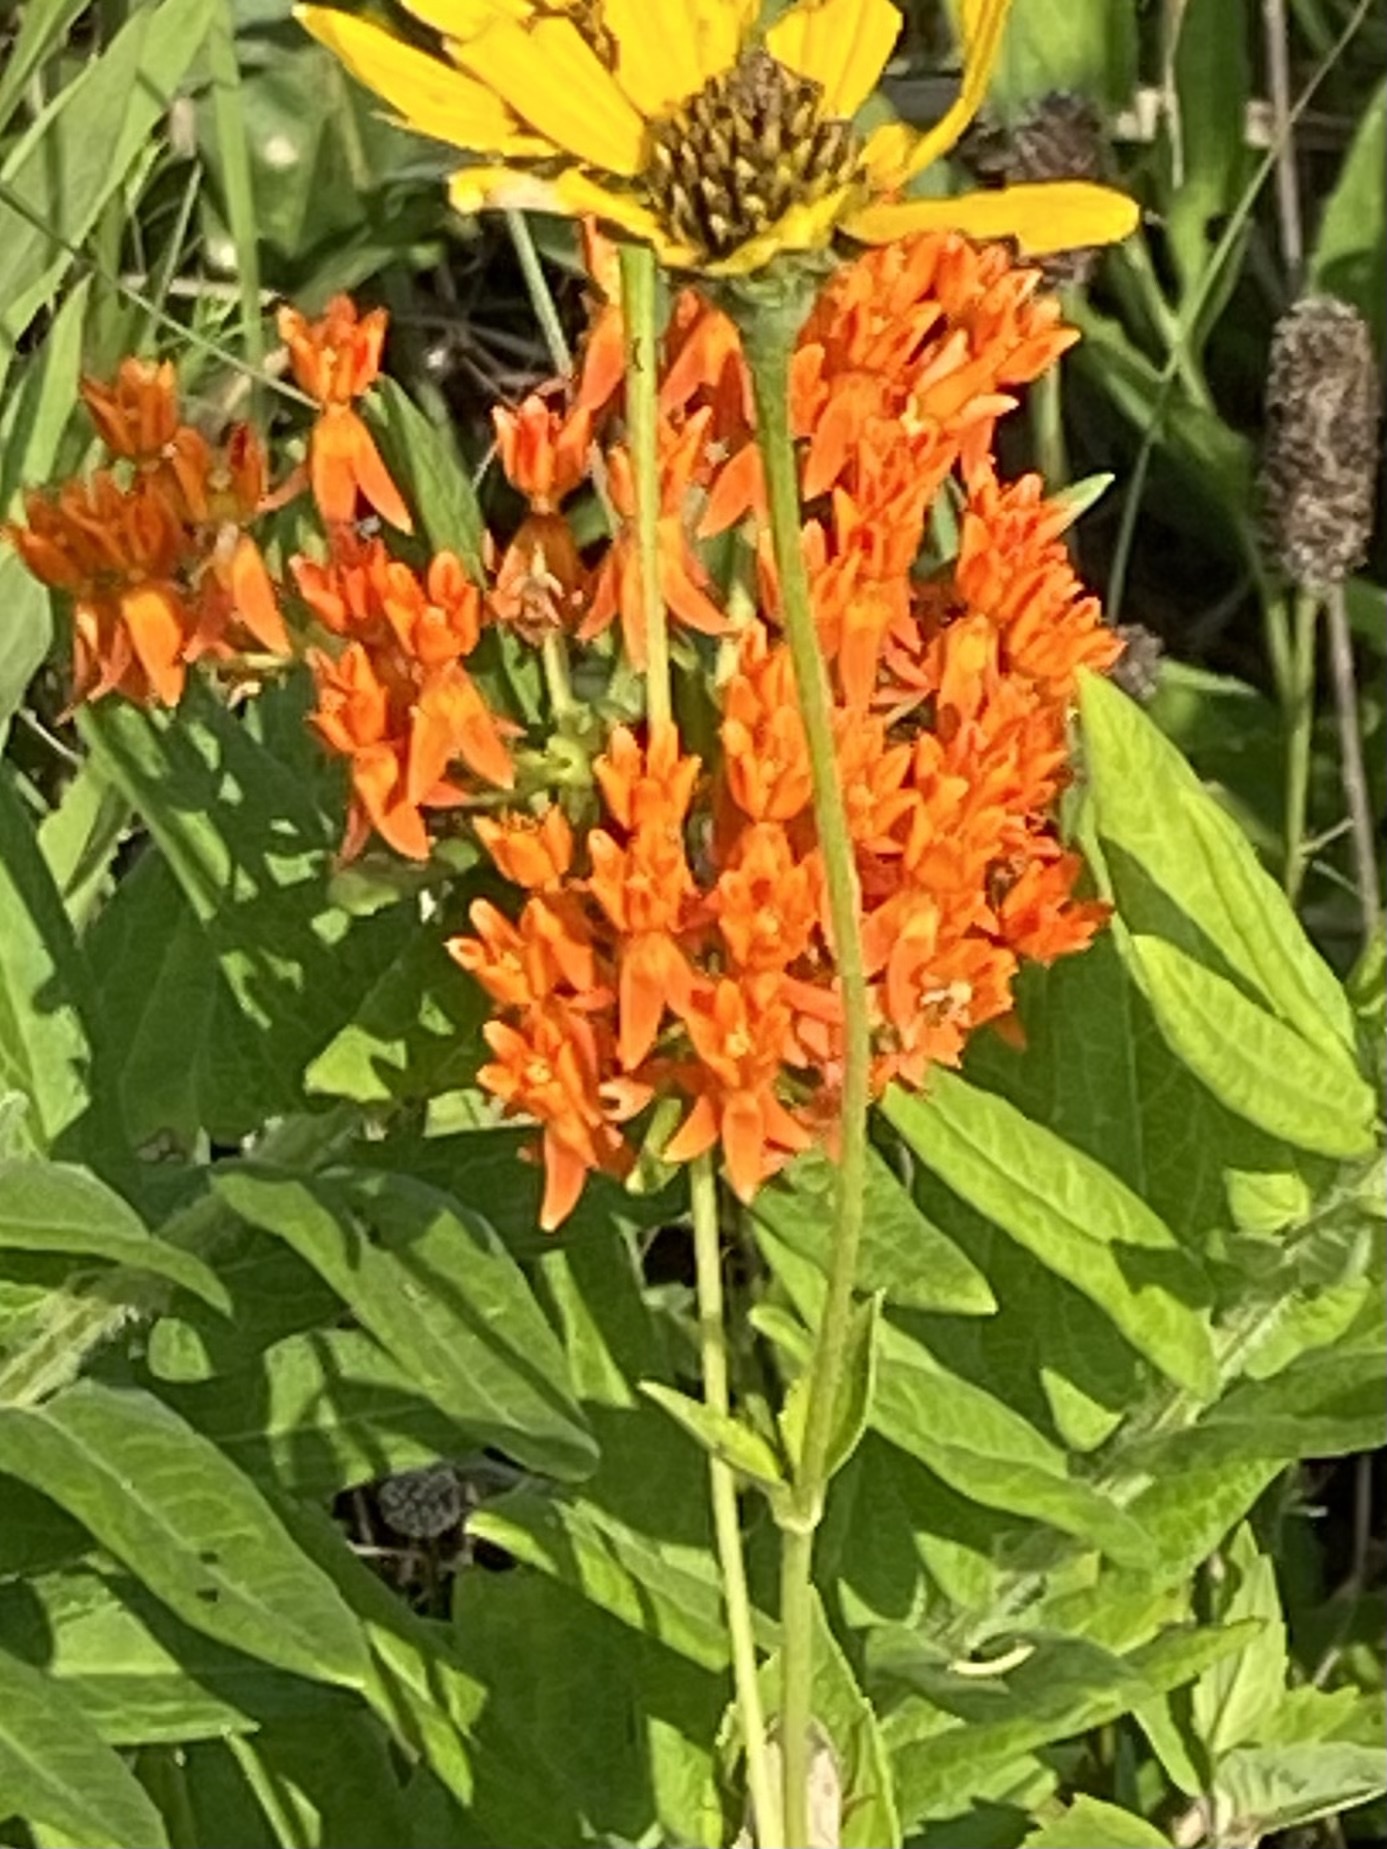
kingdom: Plantae
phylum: Tracheophyta
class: Magnoliopsida
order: Gentianales
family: Apocynaceae
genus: Asclepias
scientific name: Asclepias tuberosa
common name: Butterfly milkweed
